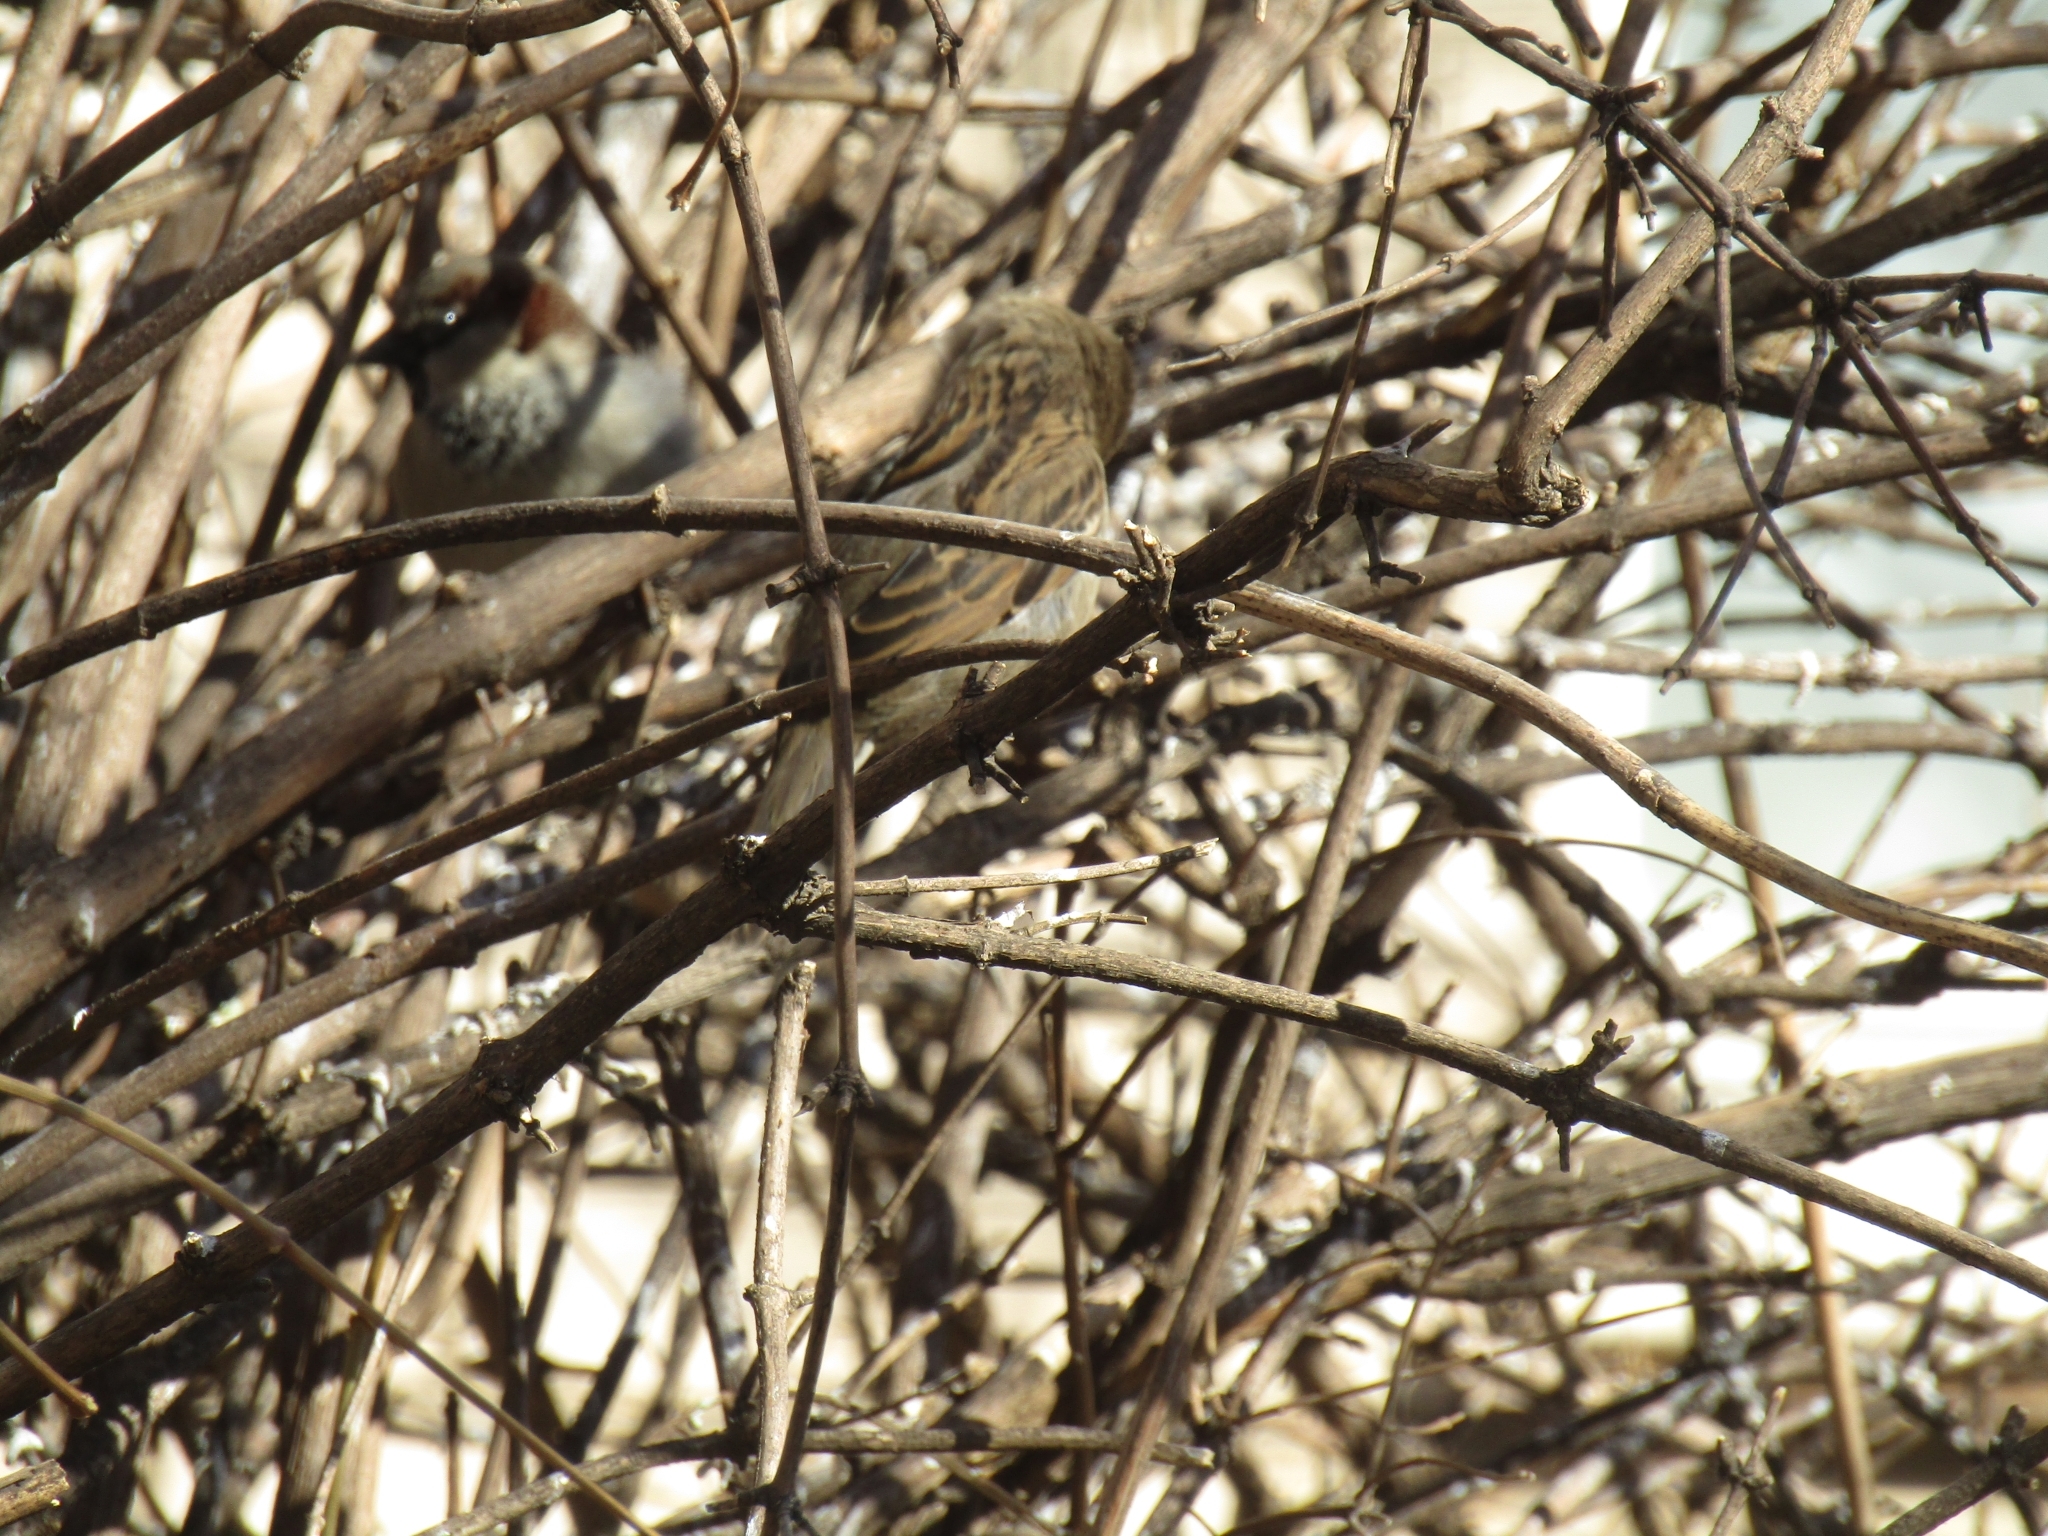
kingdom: Animalia
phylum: Chordata
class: Aves
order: Passeriformes
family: Passeridae
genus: Passer
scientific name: Passer domesticus
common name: House sparrow
